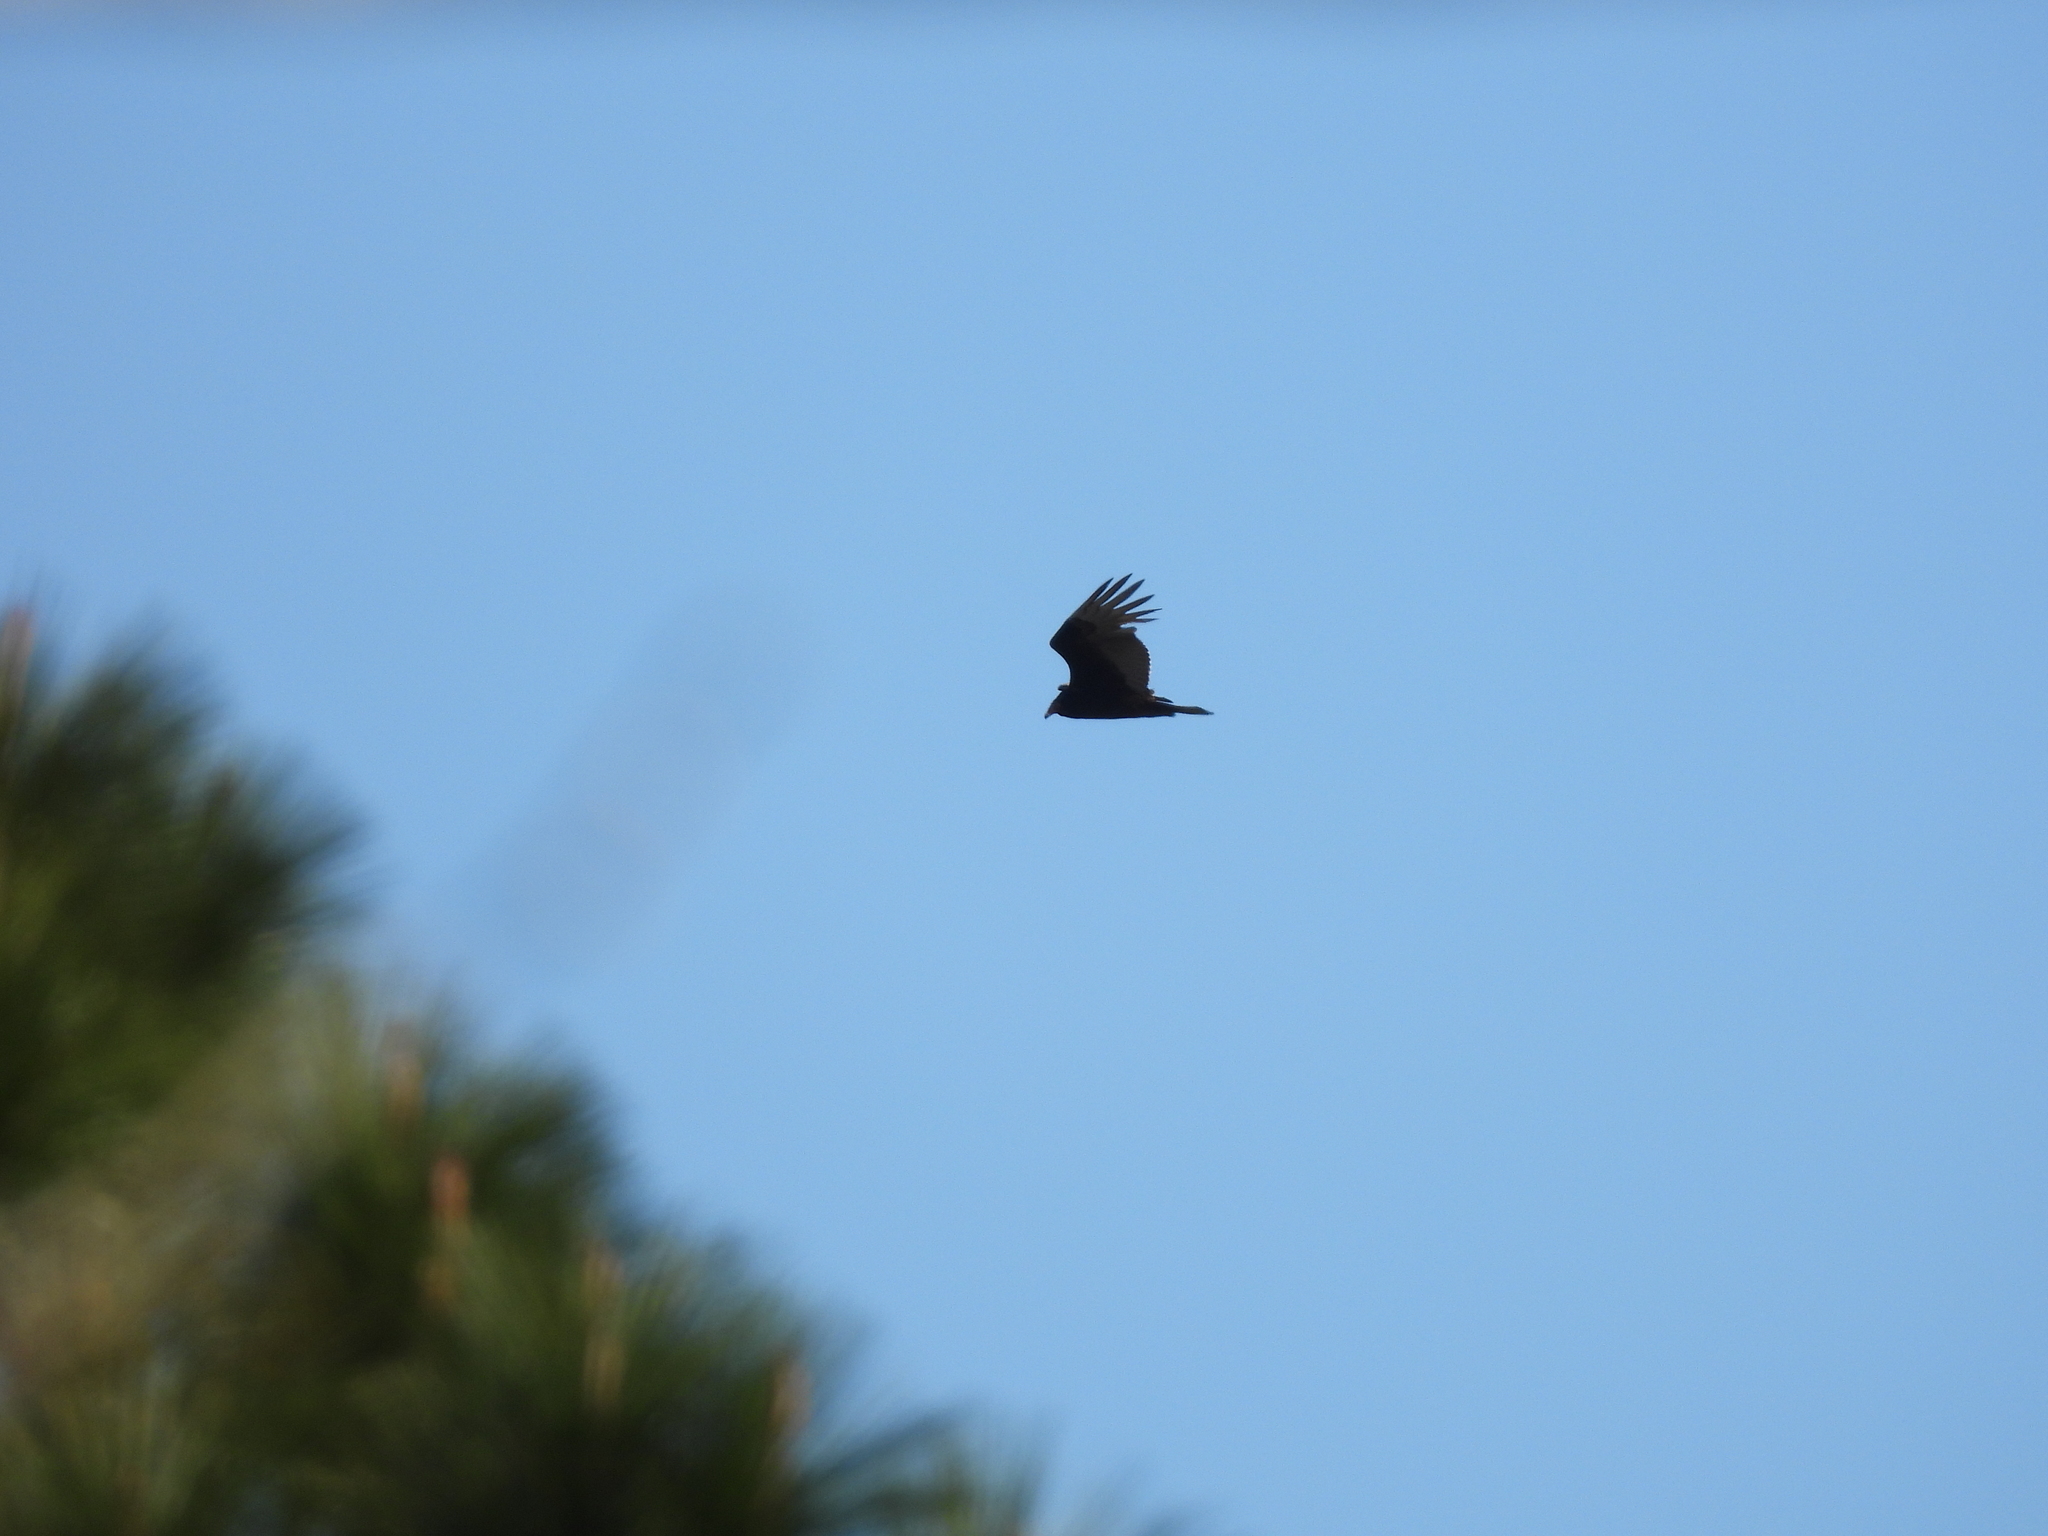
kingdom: Animalia
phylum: Chordata
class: Aves
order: Accipitriformes
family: Cathartidae
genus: Cathartes
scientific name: Cathartes aura
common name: Turkey vulture
